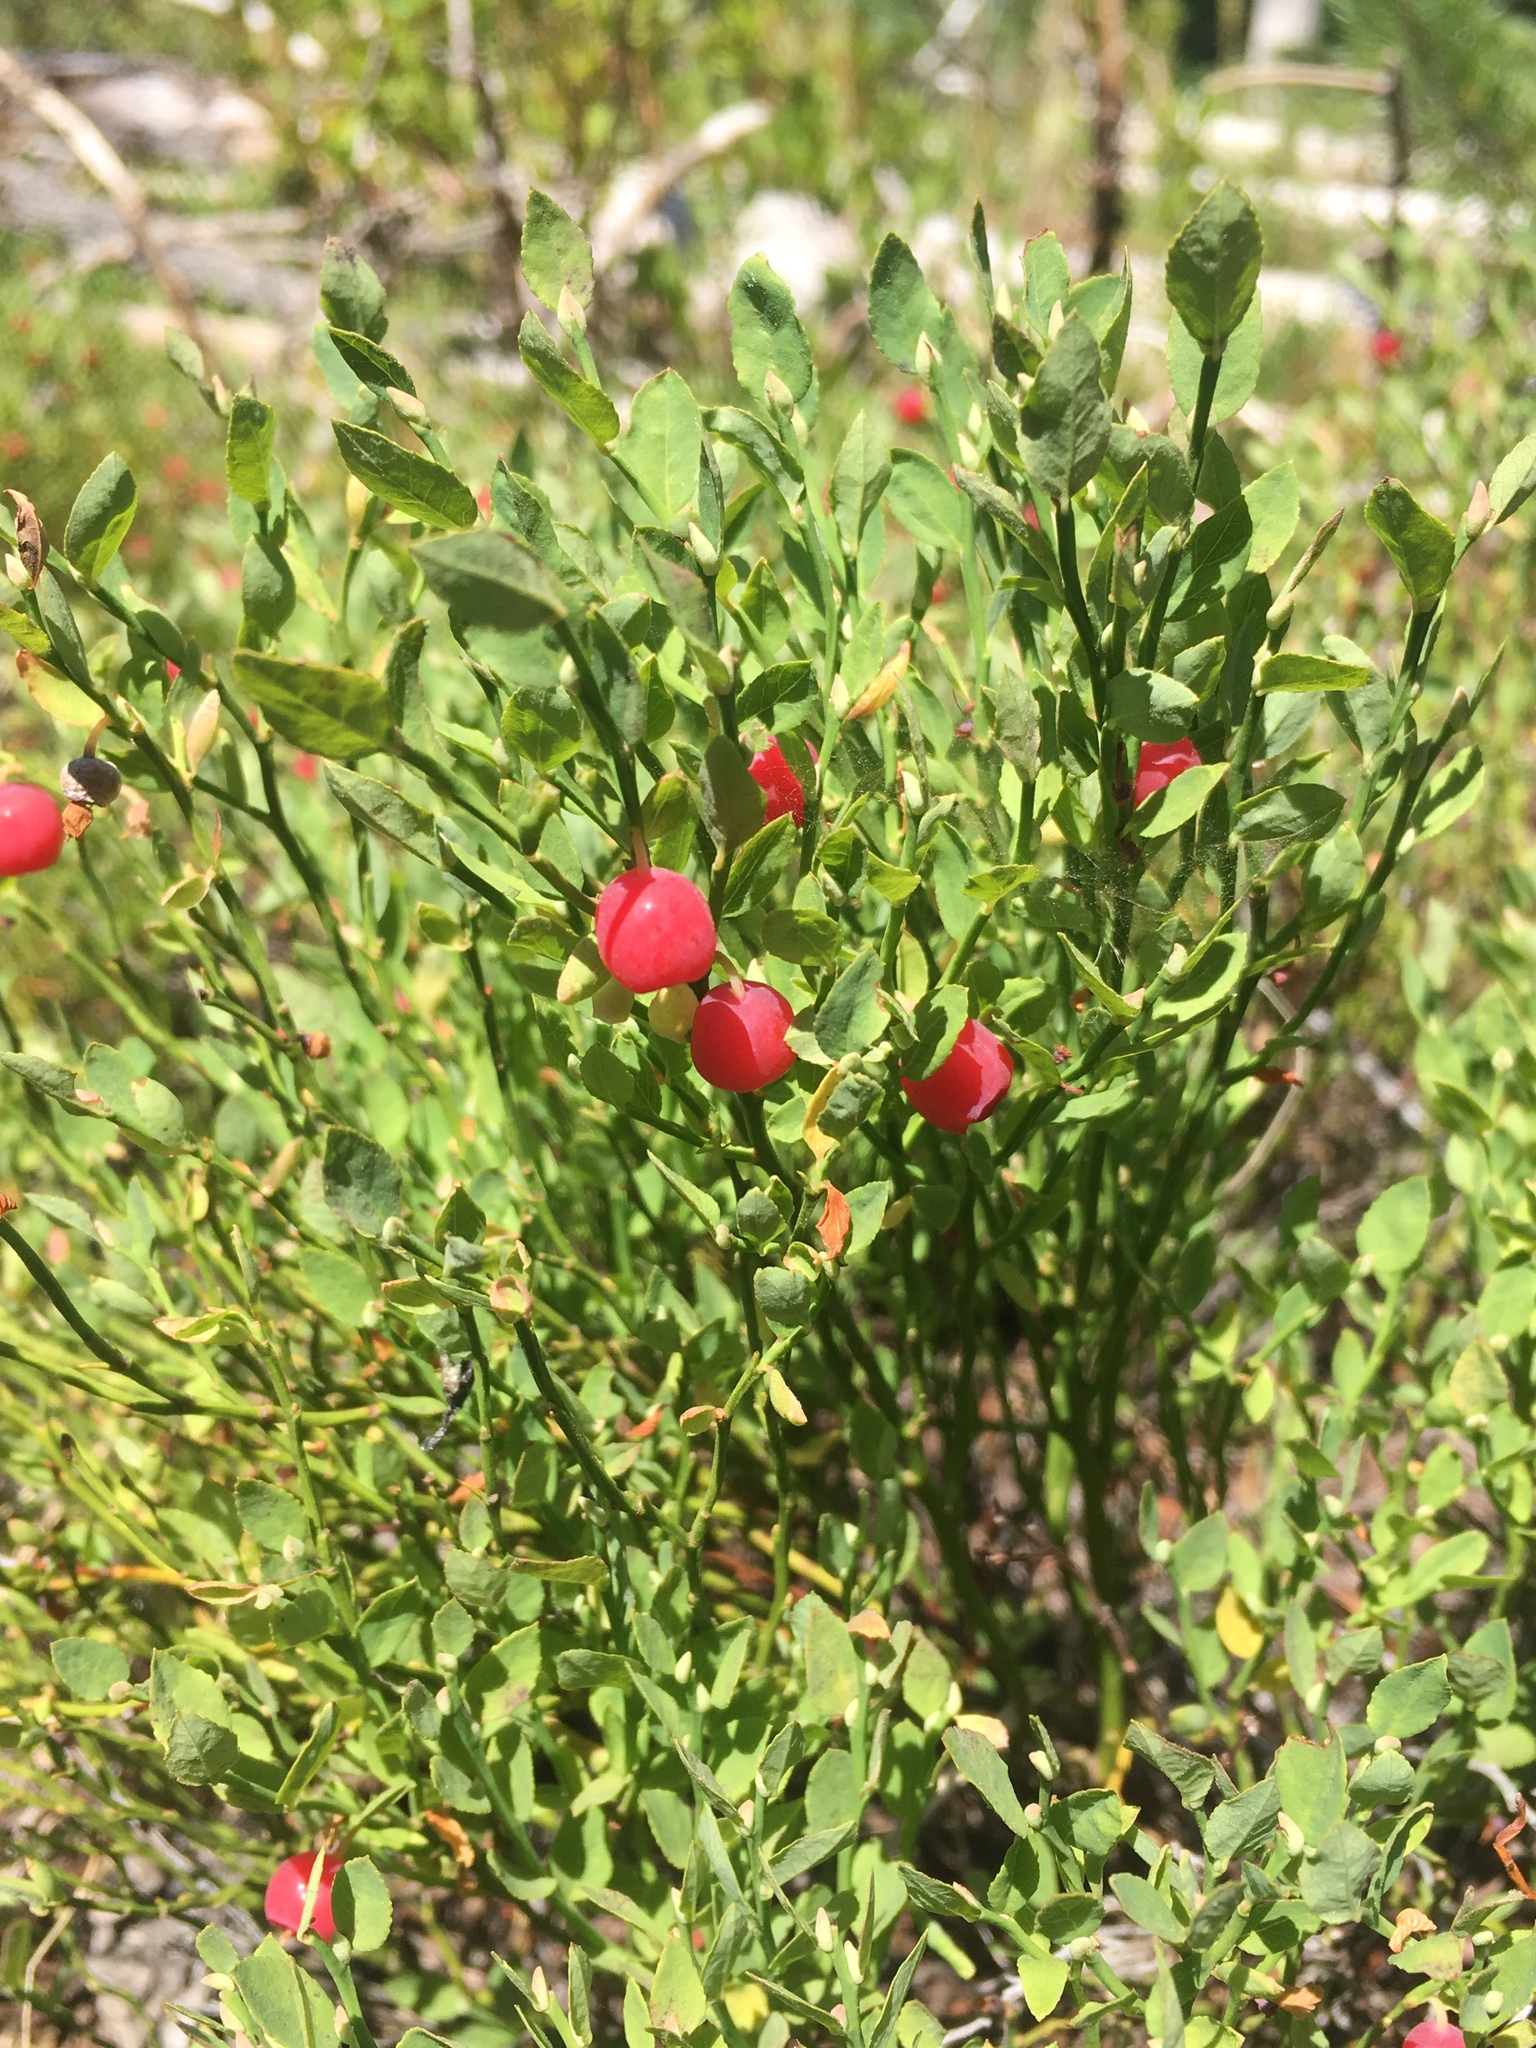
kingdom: Plantae
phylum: Tracheophyta
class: Magnoliopsida
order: Ericales
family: Ericaceae
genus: Vaccinium
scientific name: Vaccinium scoparium
